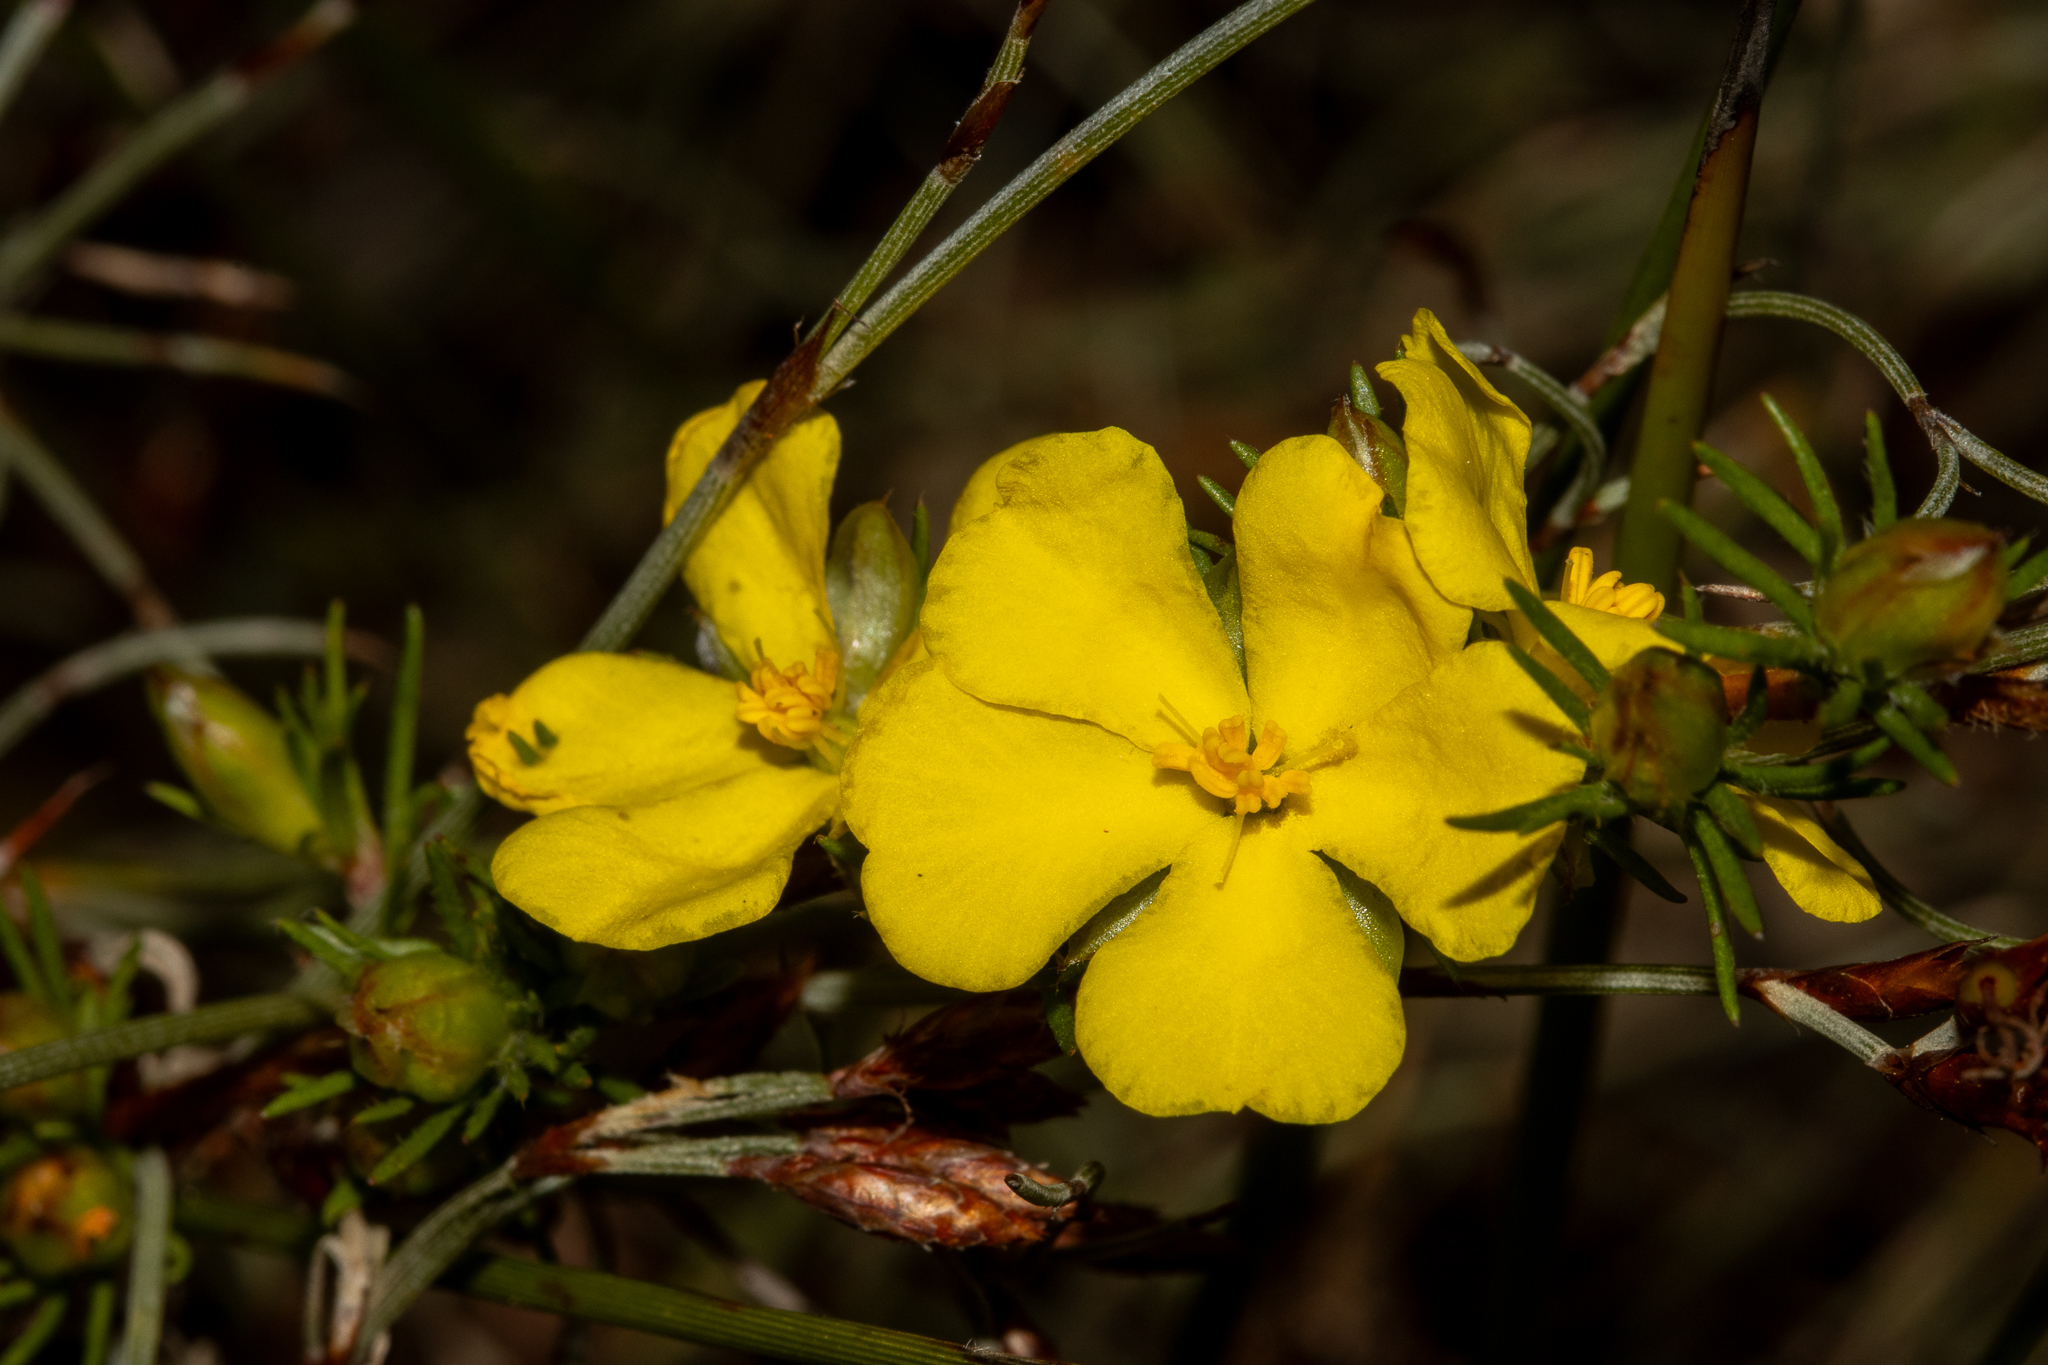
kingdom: Plantae
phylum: Tracheophyta
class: Magnoliopsida
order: Dilleniales
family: Dilleniaceae
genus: Hibbertia
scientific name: Hibbertia fasciculata
